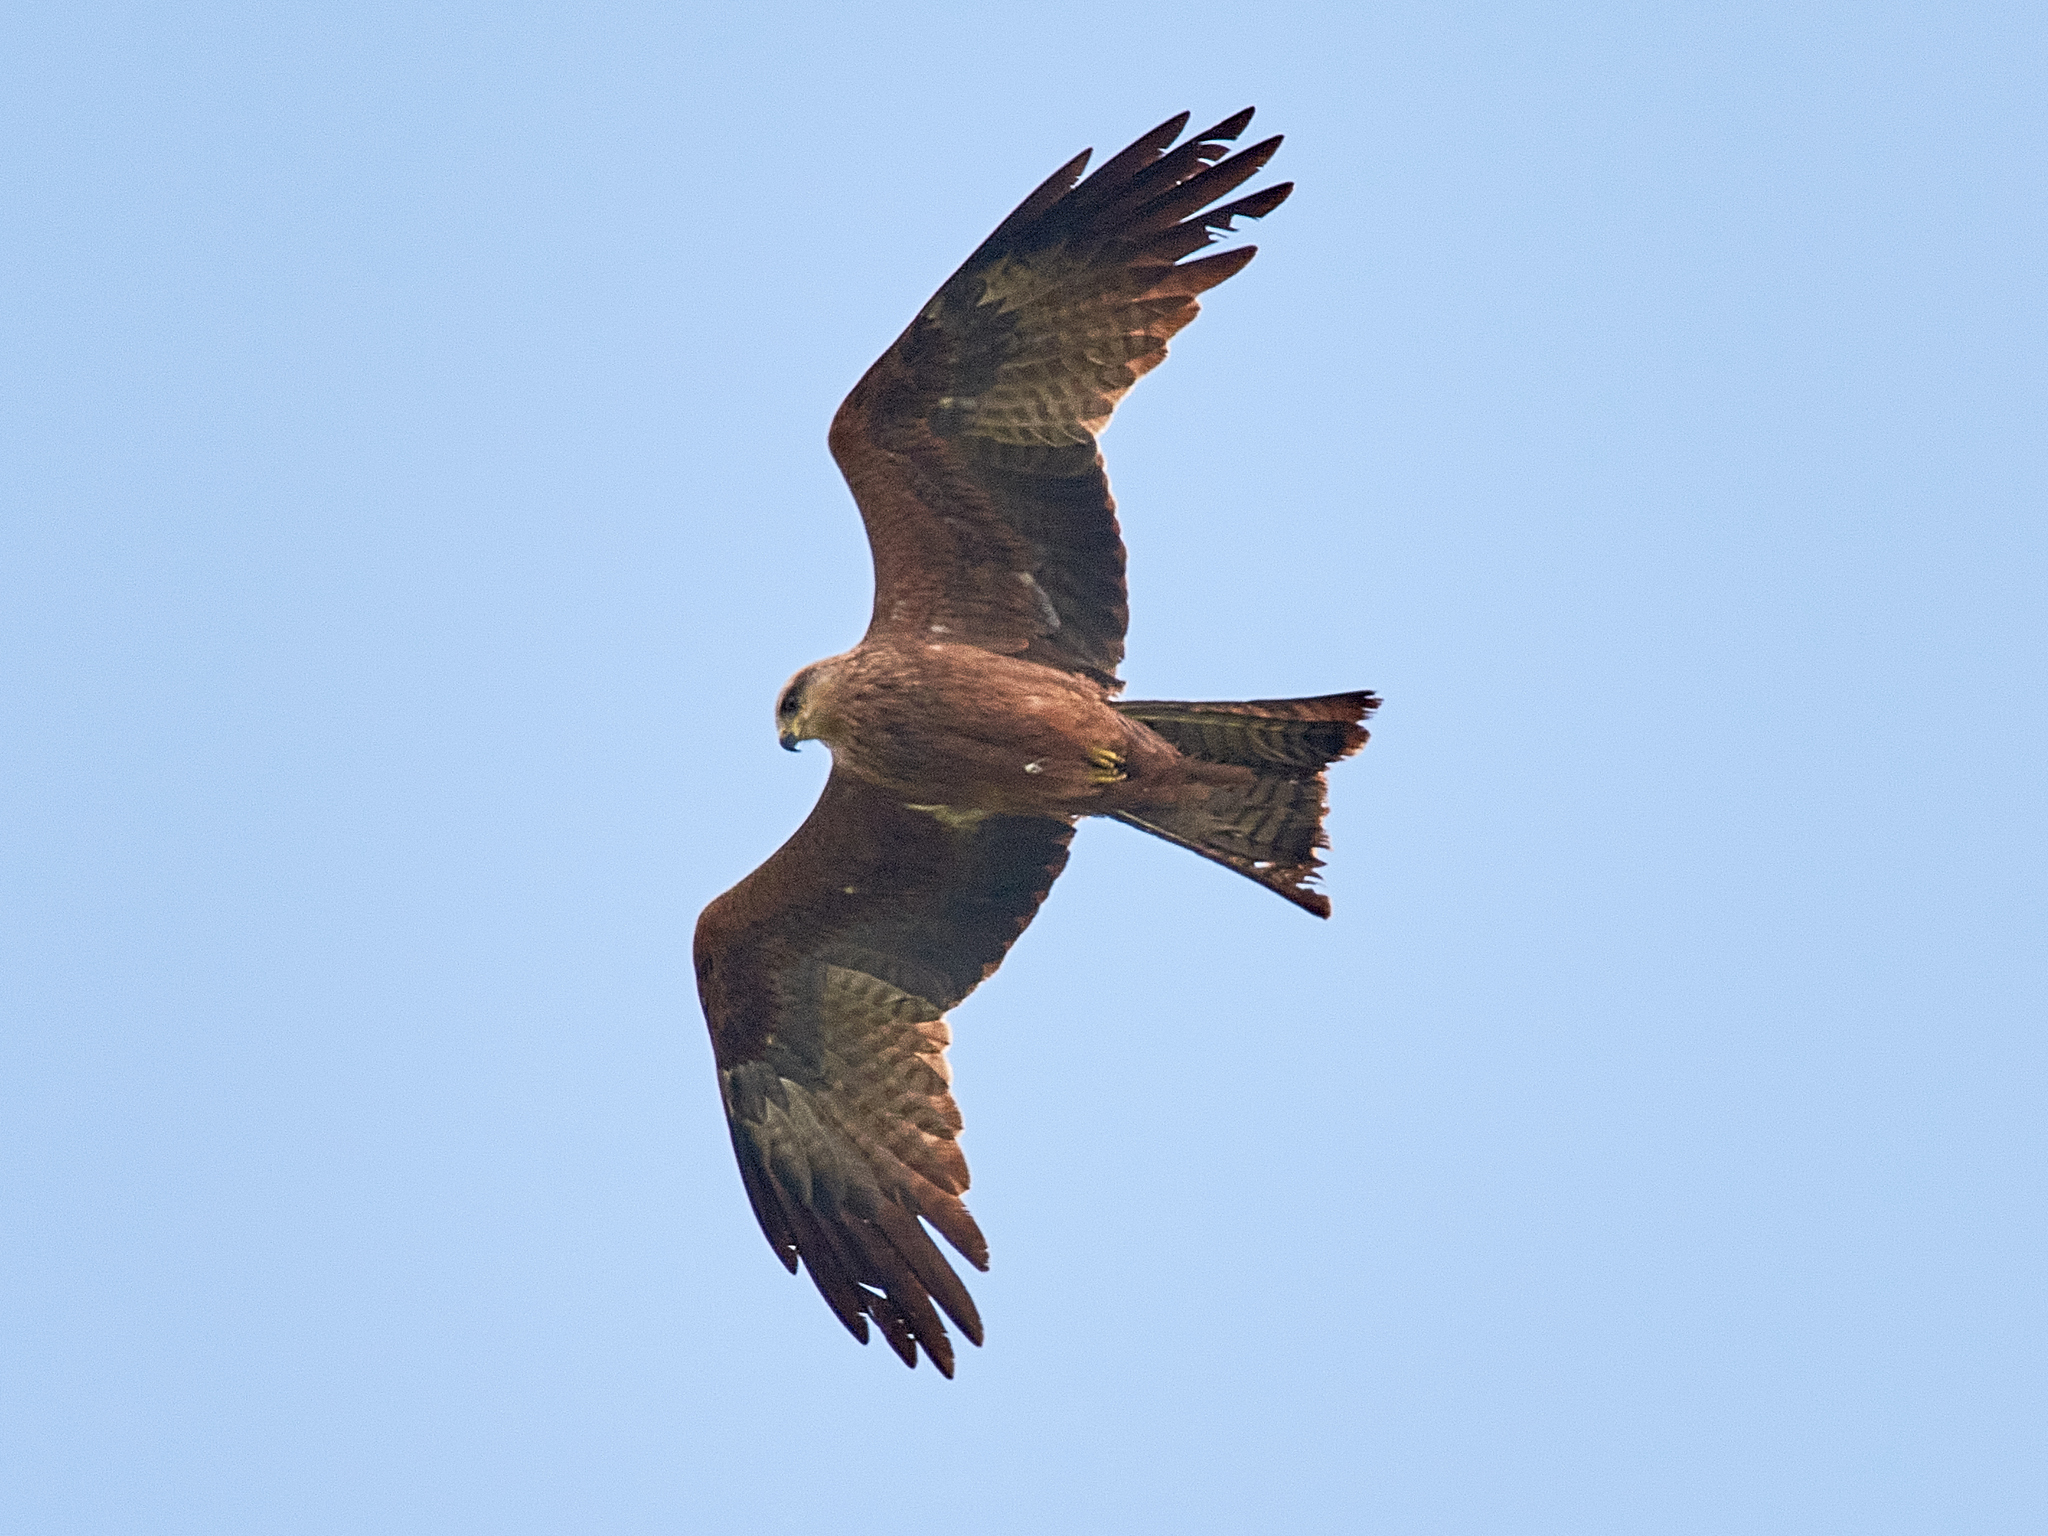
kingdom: Animalia
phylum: Chordata
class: Aves
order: Accipitriformes
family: Accipitridae
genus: Milvus
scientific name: Milvus migrans
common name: Black kite
